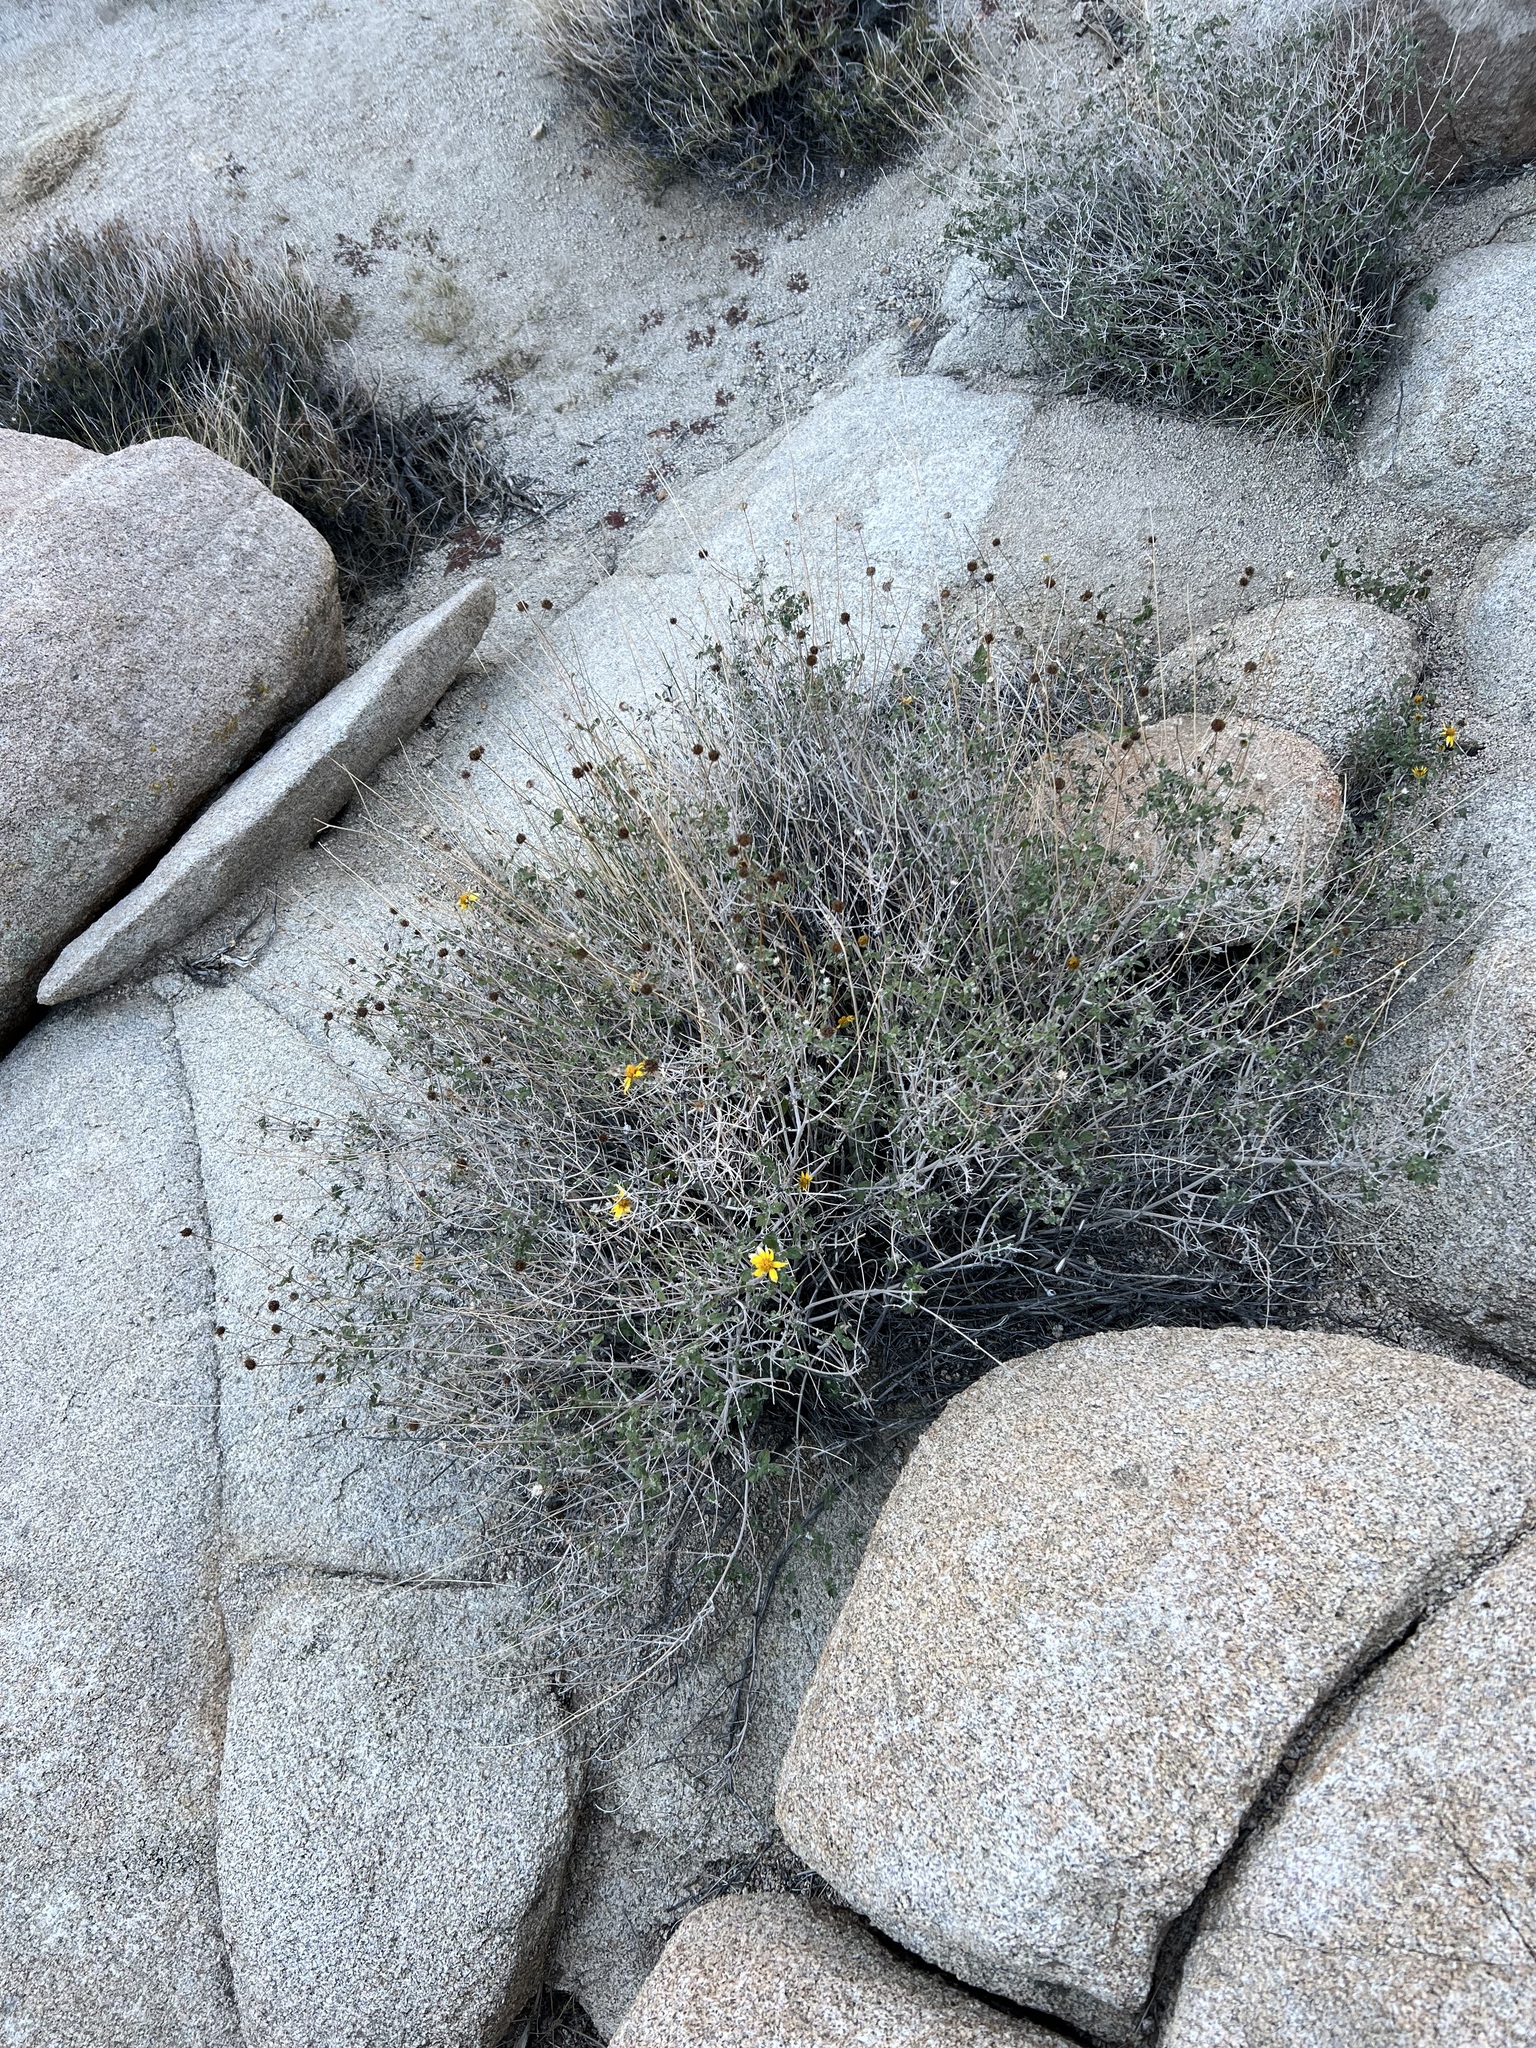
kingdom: Plantae
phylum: Tracheophyta
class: Magnoliopsida
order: Asterales
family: Asteraceae
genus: Bahiopsis
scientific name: Bahiopsis parishii
